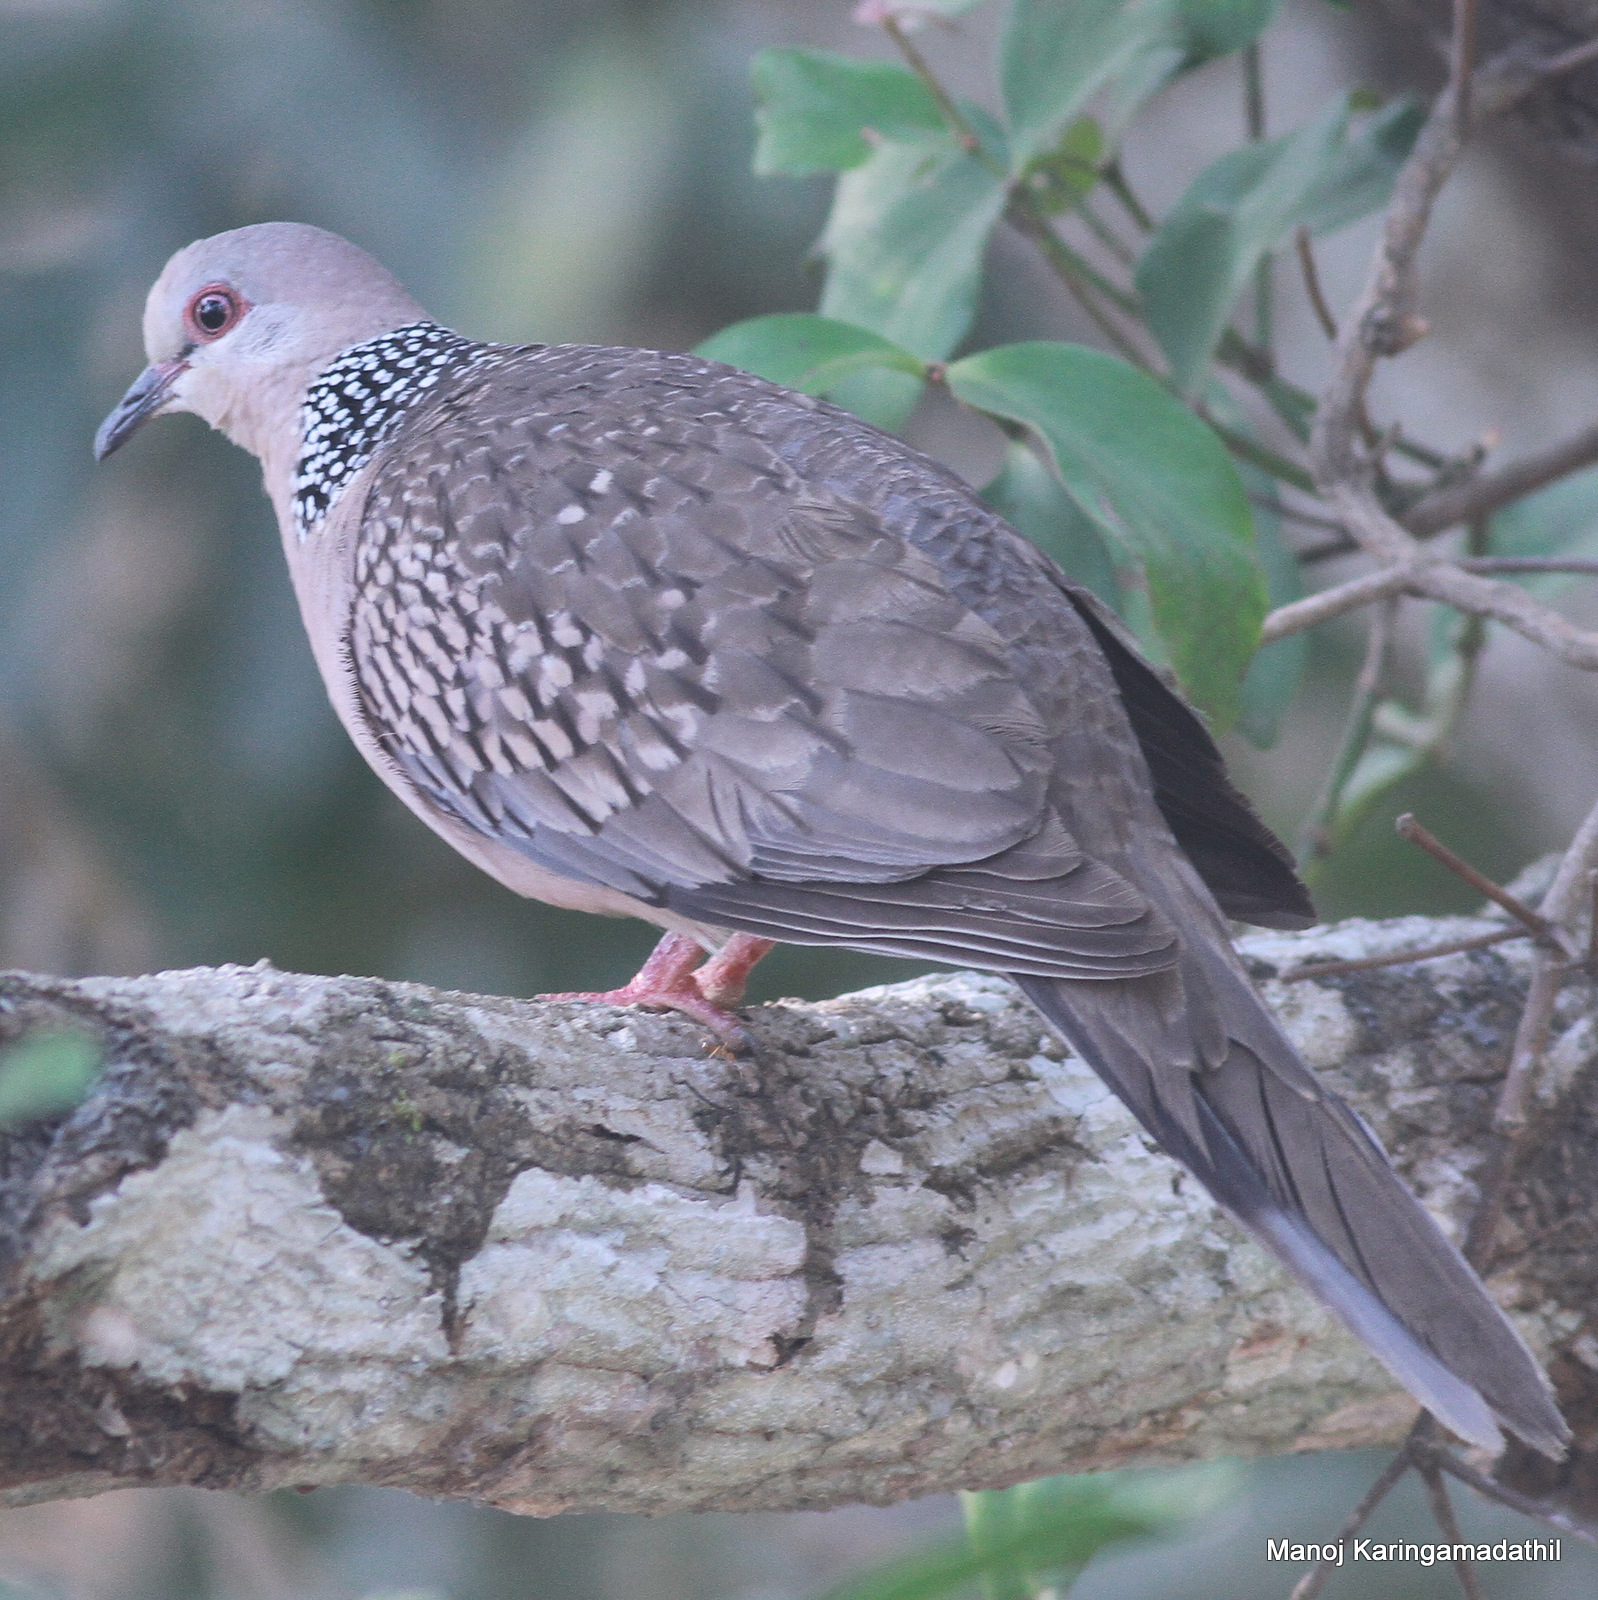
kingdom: Animalia
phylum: Chordata
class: Aves
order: Columbiformes
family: Columbidae
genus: Spilopelia
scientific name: Spilopelia chinensis
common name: Spotted dove
